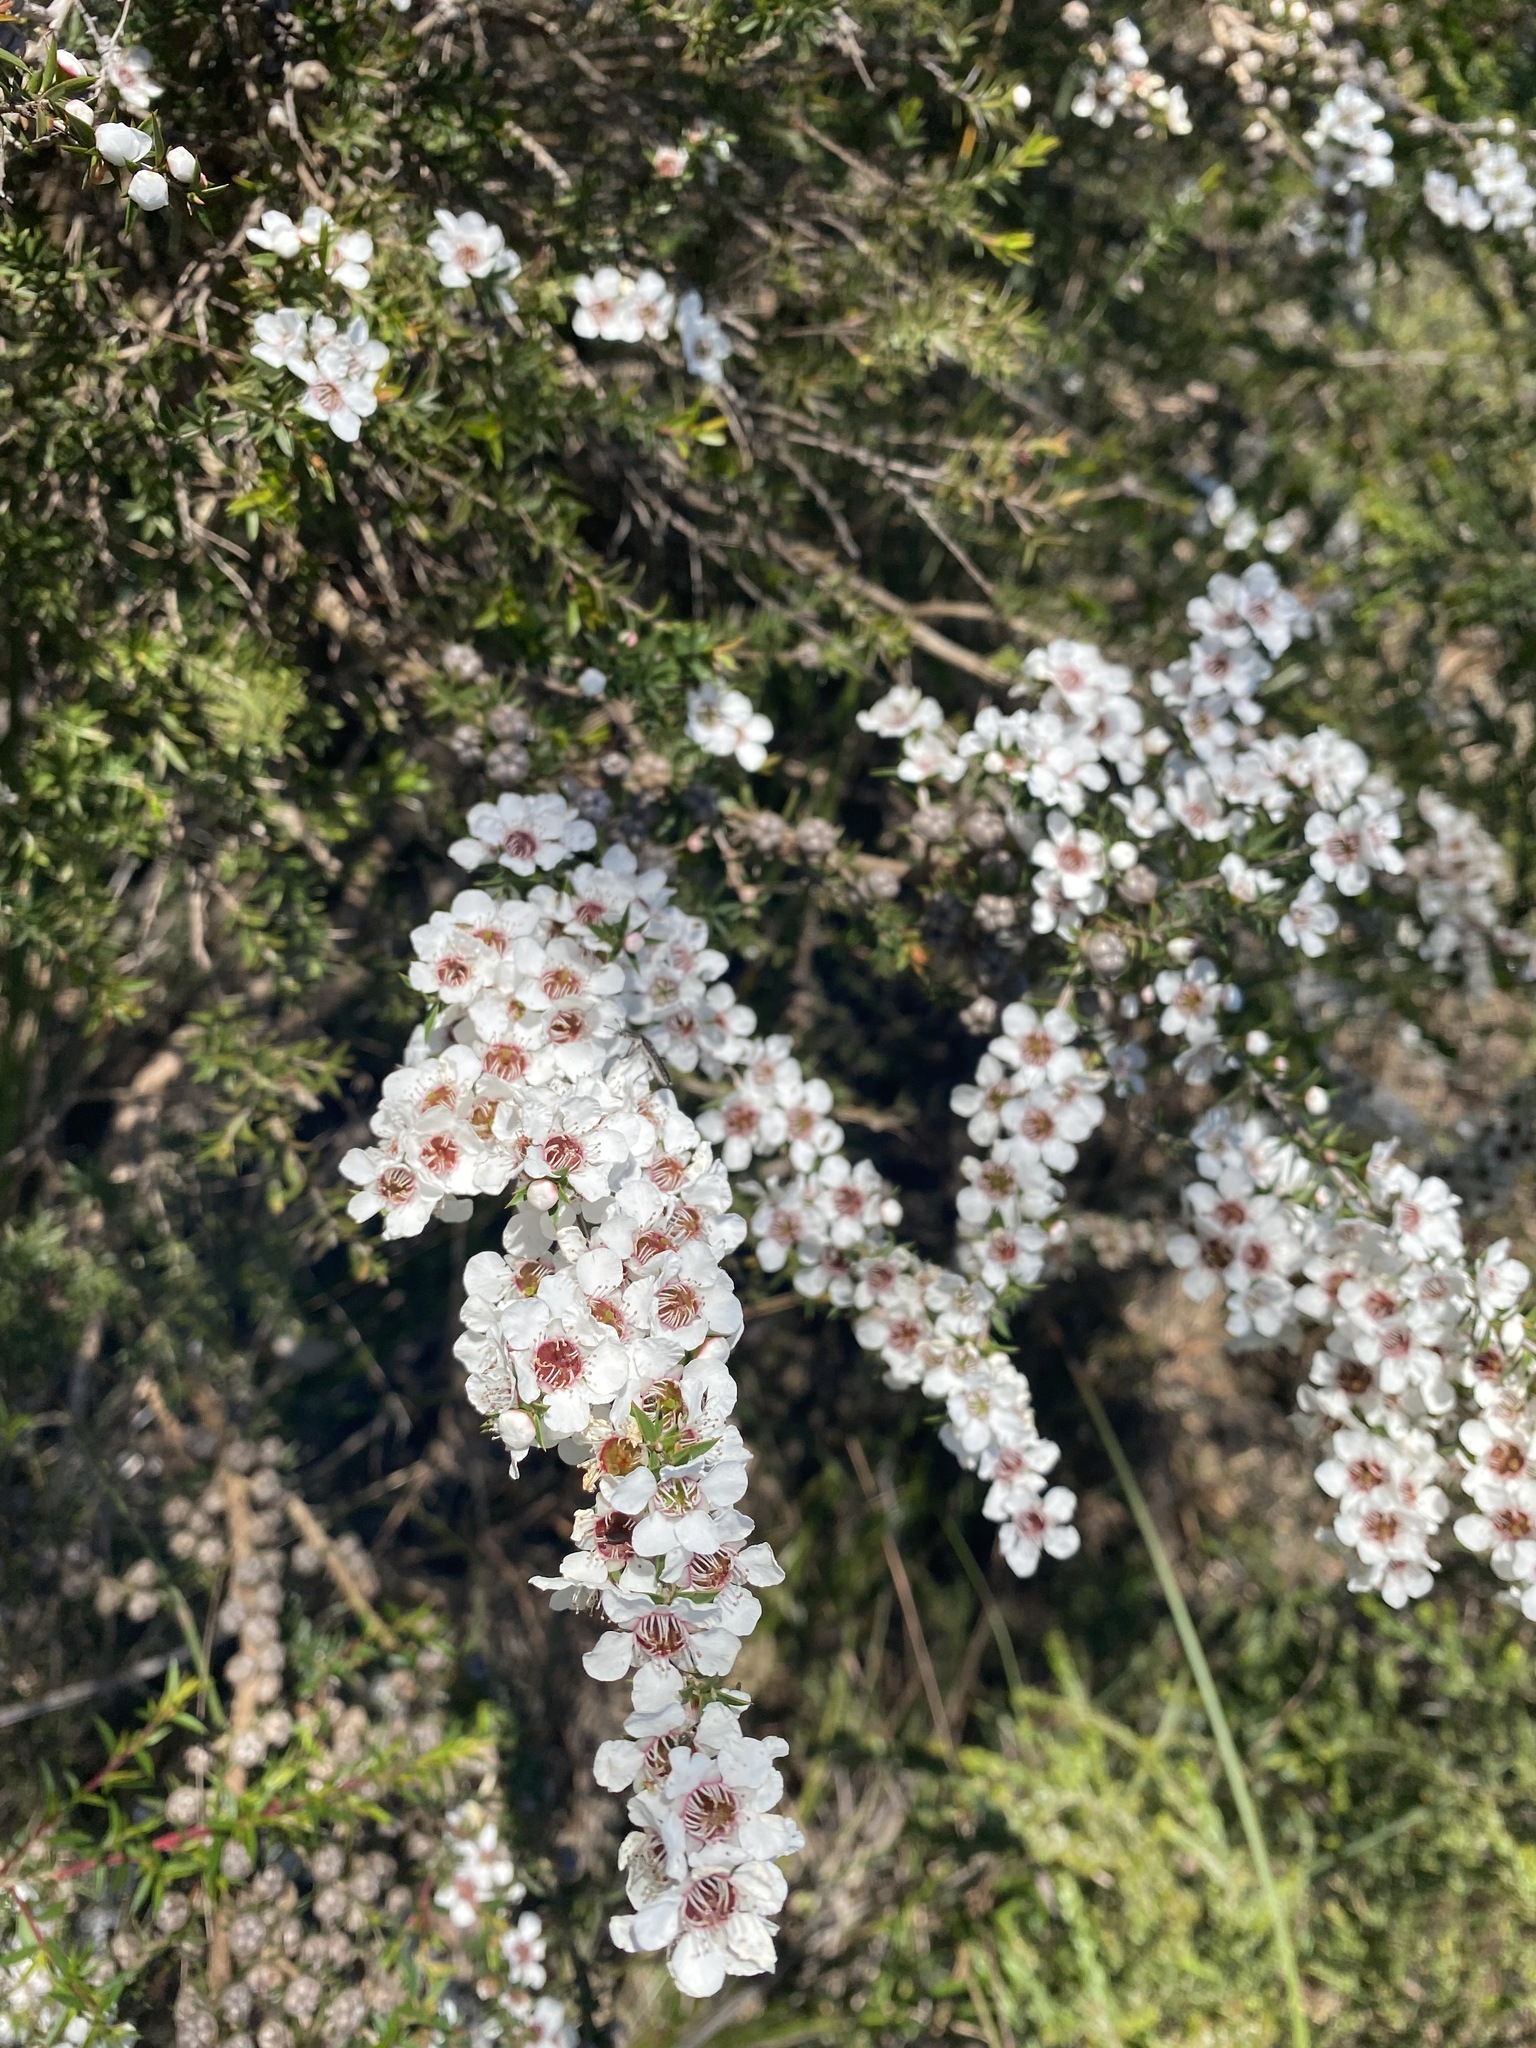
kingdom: Plantae
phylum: Tracheophyta
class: Magnoliopsida
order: Myrtales
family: Myrtaceae
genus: Leptospermum
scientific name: Leptospermum continentale
